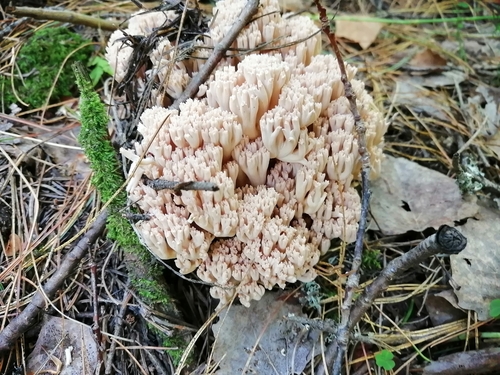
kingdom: Fungi
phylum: Basidiomycota
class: Agaricomycetes
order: Gomphales
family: Gomphaceae
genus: Ramaria
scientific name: Ramaria pallida
